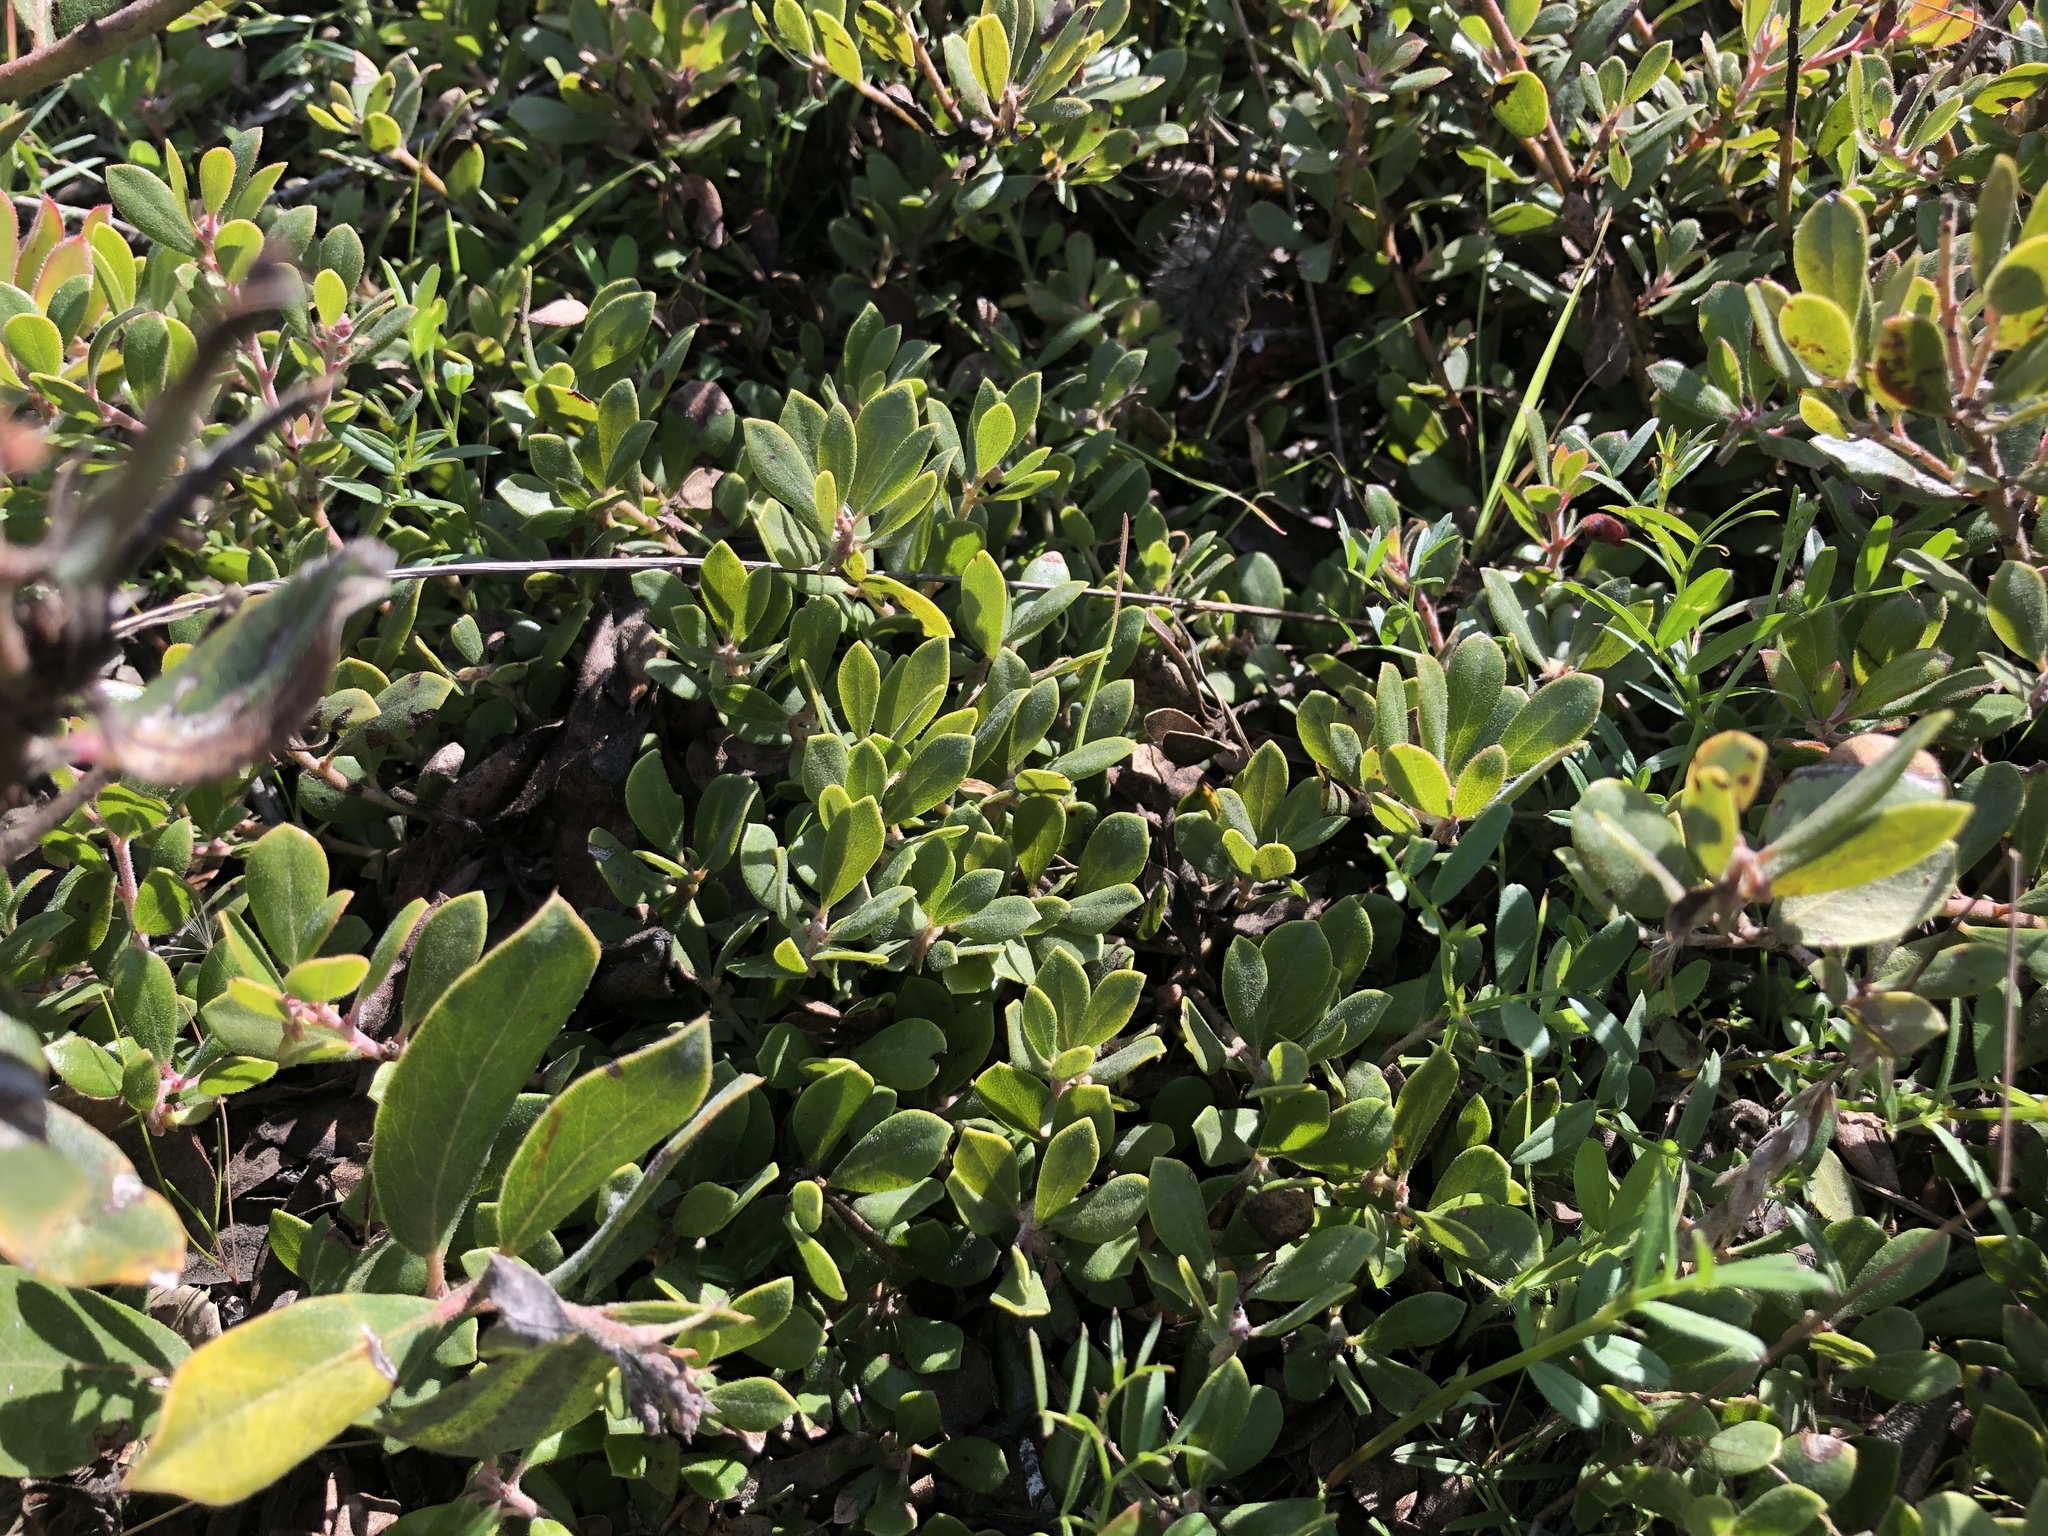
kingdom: Plantae
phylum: Tracheophyta
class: Magnoliopsida
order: Ericales
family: Ericaceae
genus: Arctostaphylos
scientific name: Arctostaphylos pumila
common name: Sandmat manzanita
